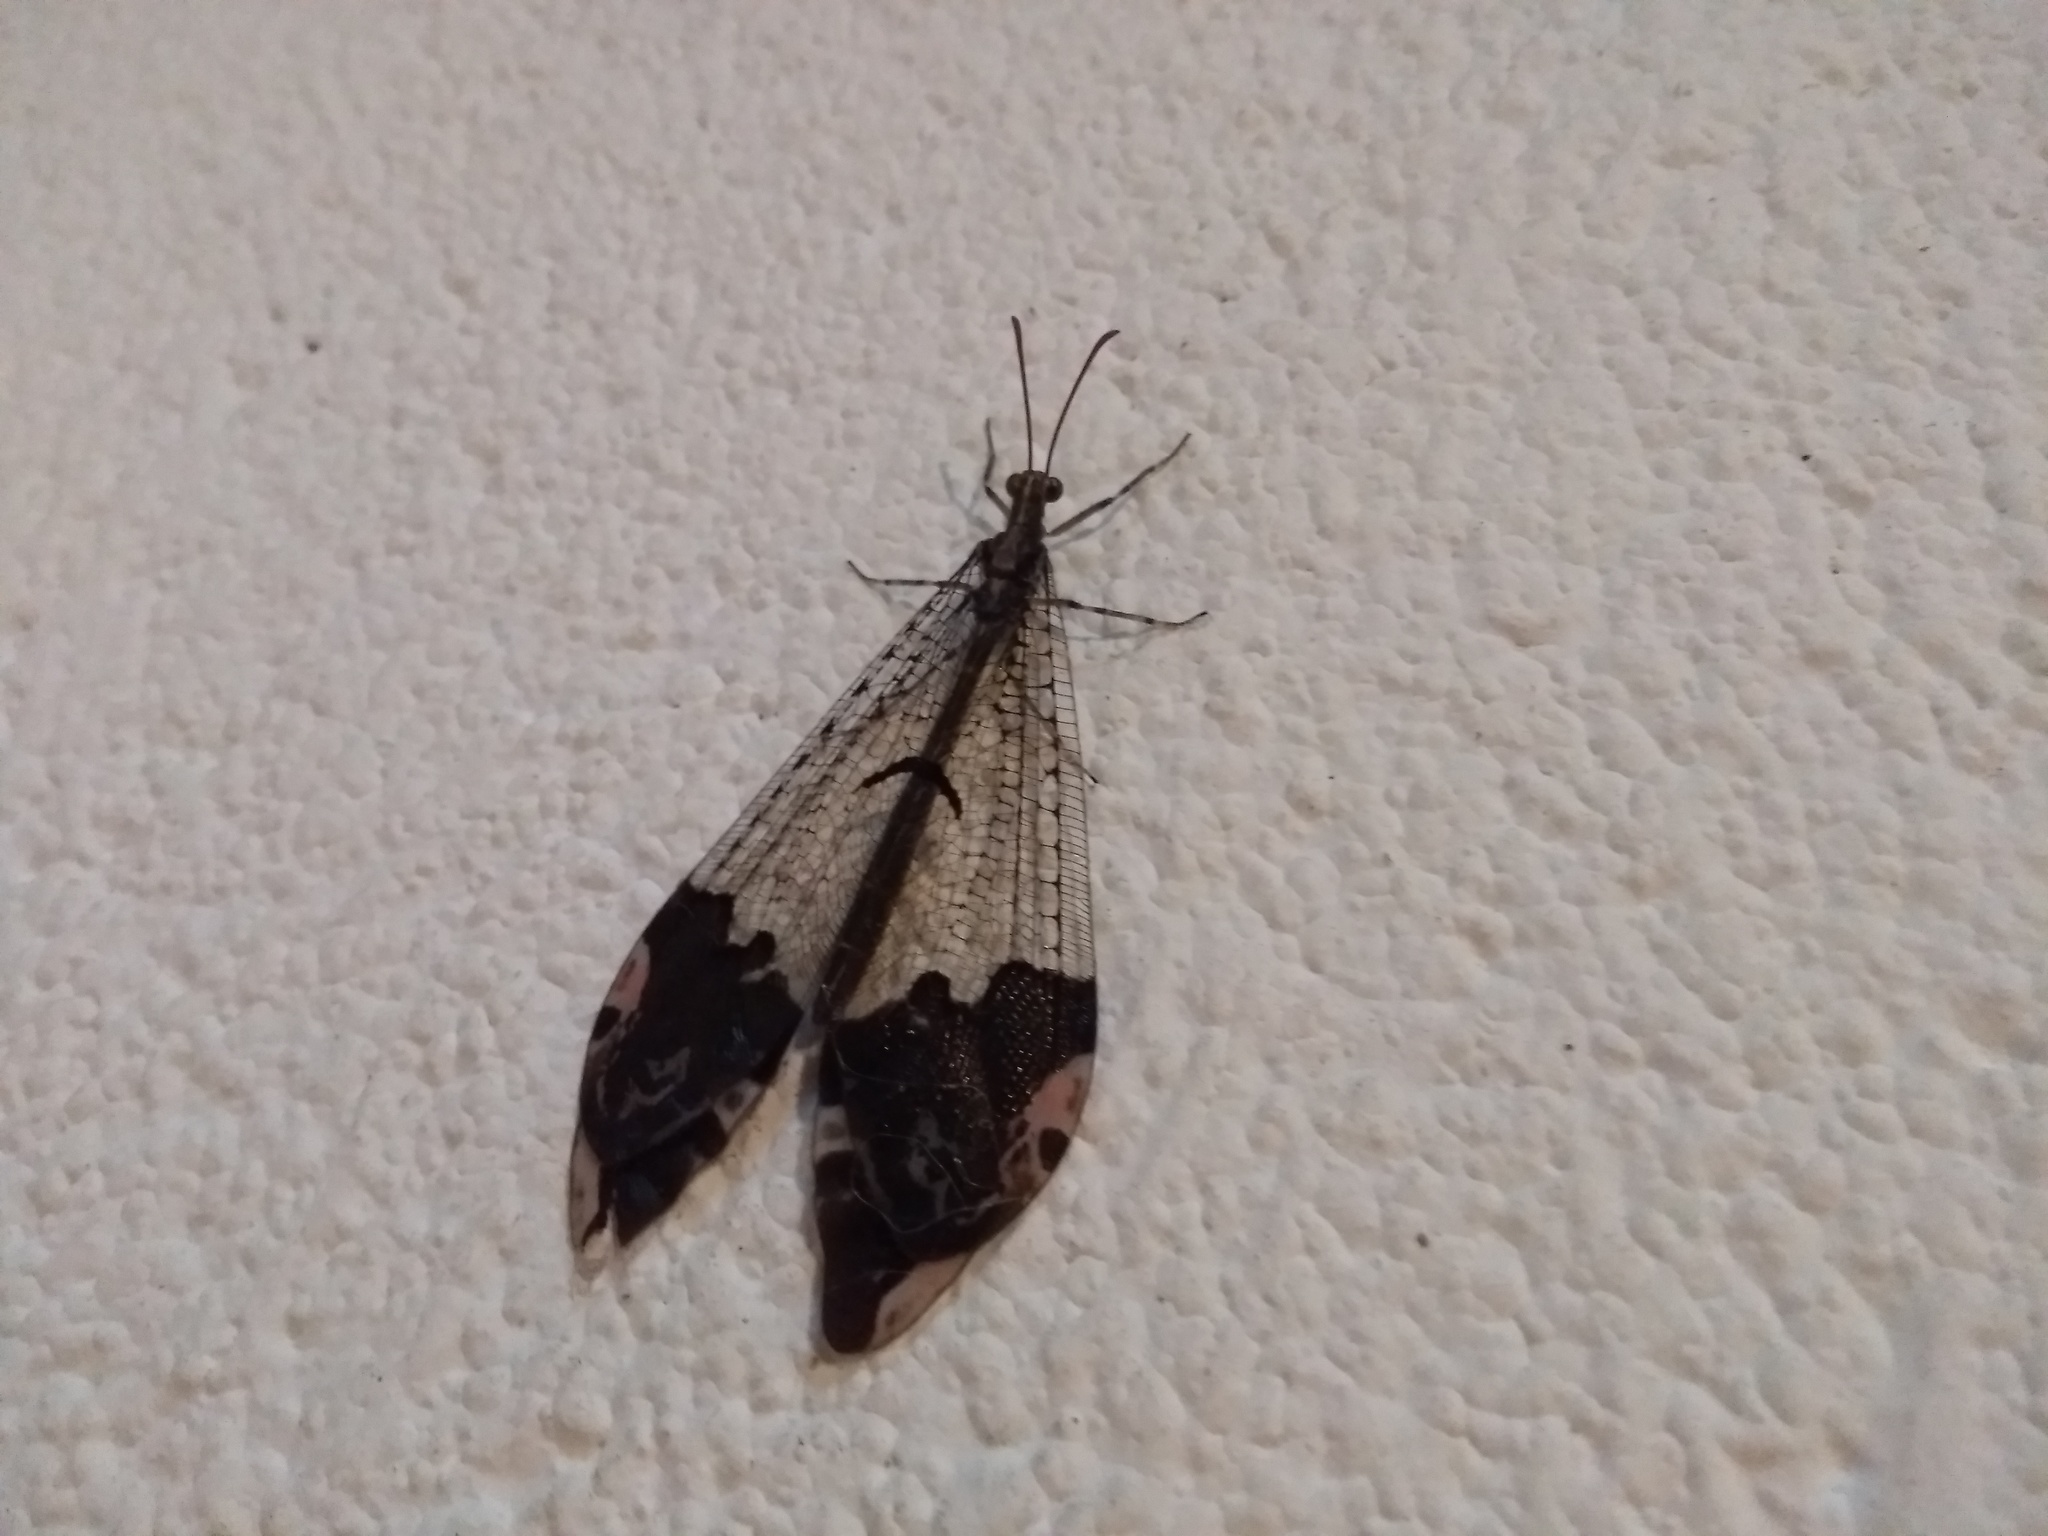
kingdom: Animalia
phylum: Arthropoda
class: Insecta
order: Neuroptera
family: Myrmeleontidae
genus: Glenurus
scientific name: Glenurus peculiaris
